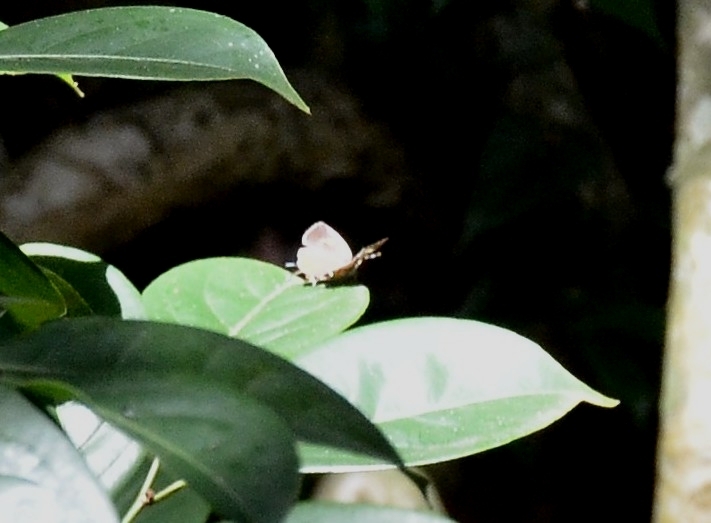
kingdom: Animalia
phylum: Arthropoda
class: Insecta
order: Lepidoptera
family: Lycaenidae
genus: Rathinda
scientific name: Rathinda amor
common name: Monkey puzzle
